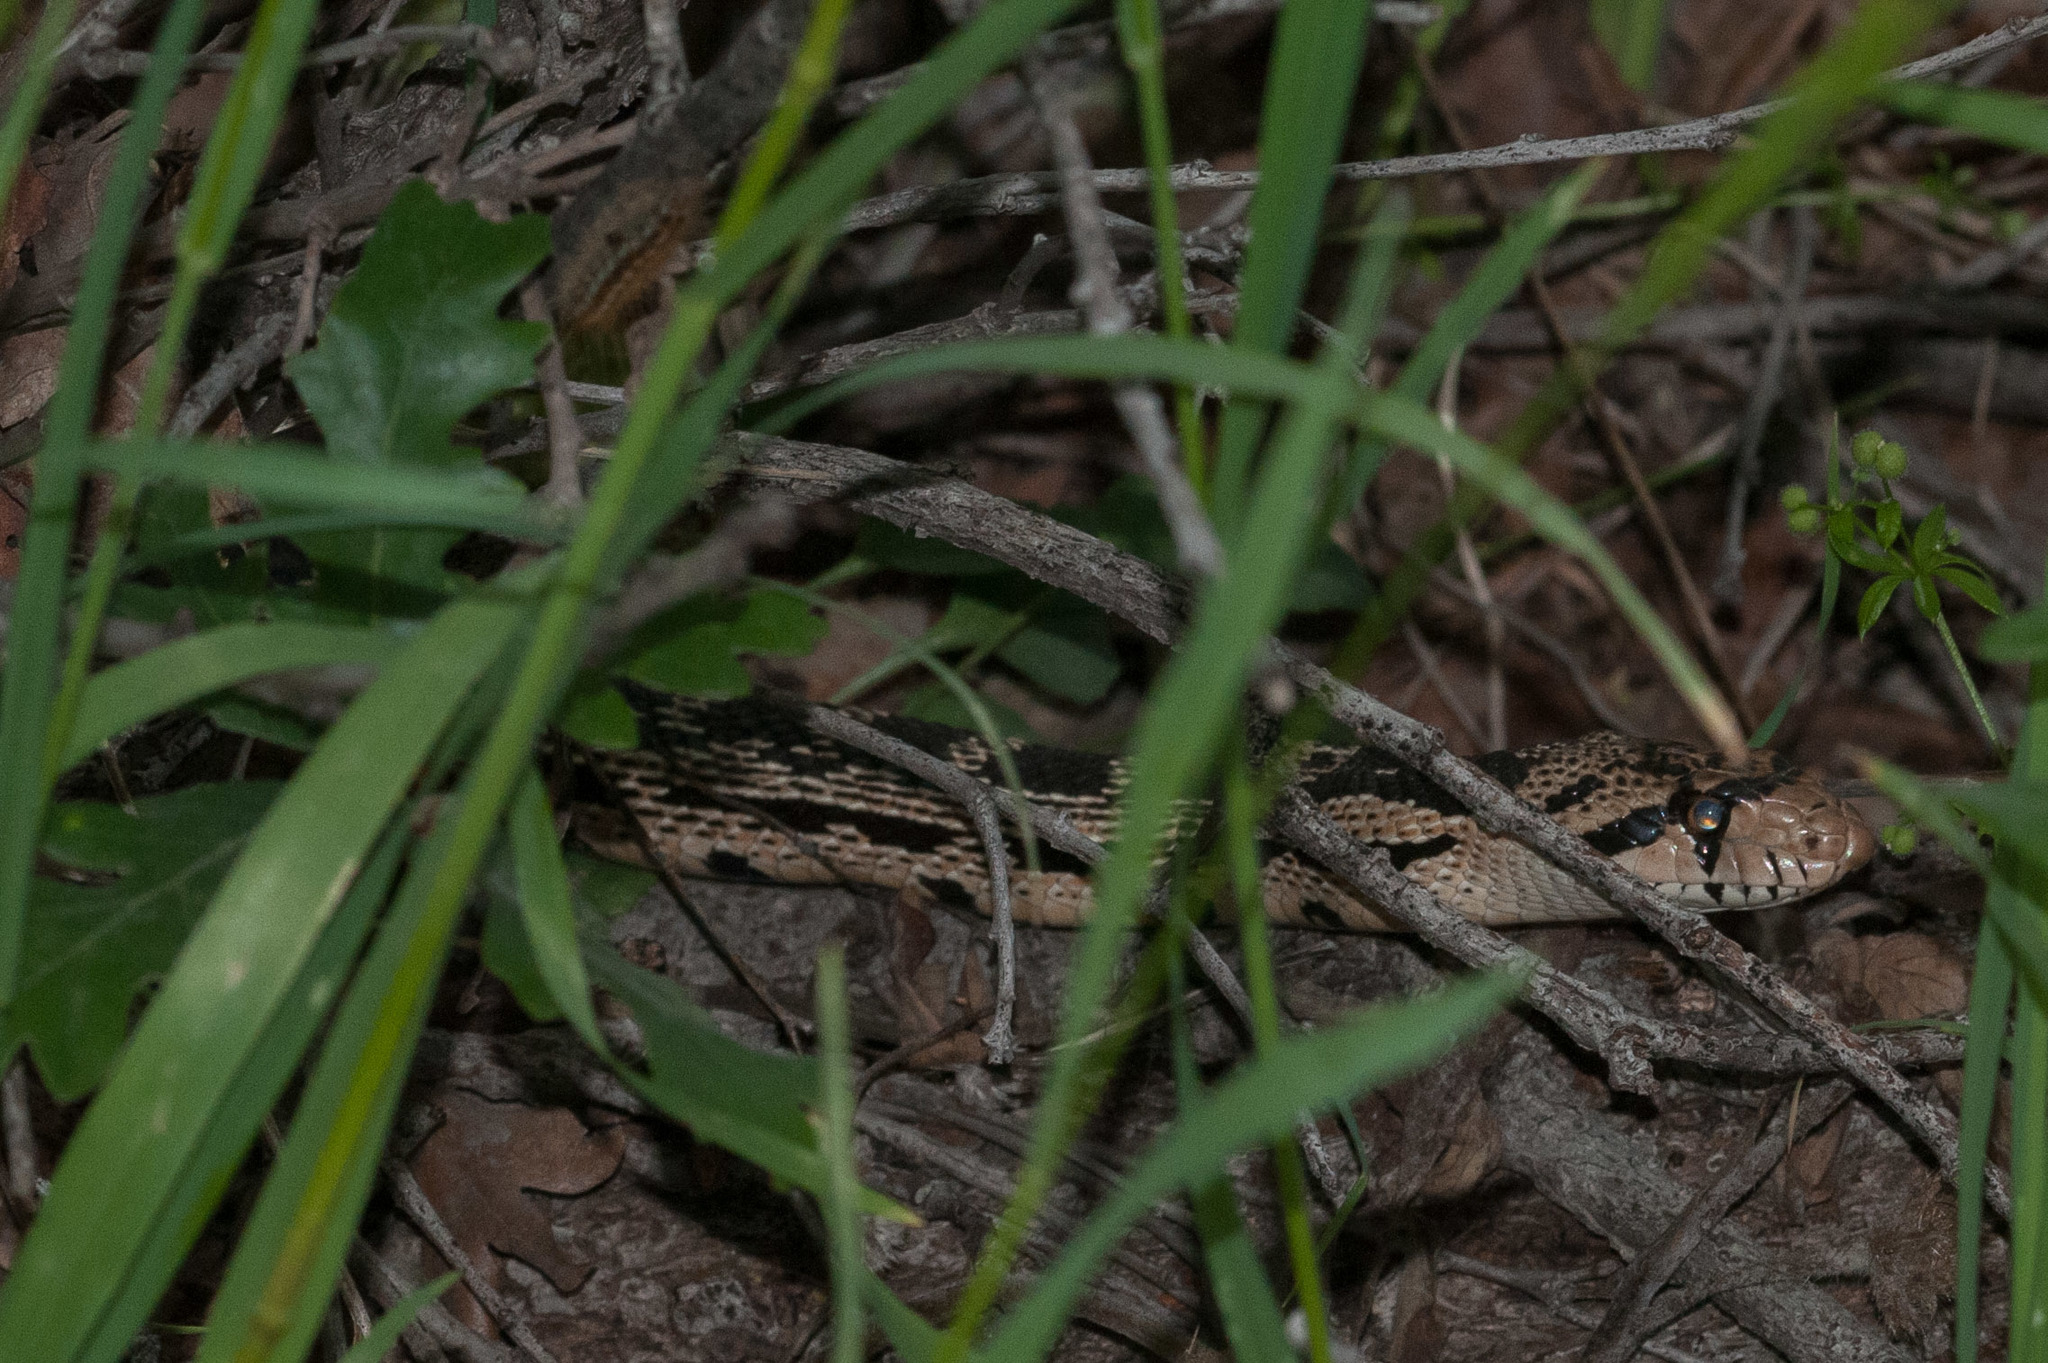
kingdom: Animalia
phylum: Chordata
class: Squamata
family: Colubridae
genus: Pituophis
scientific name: Pituophis catenifer
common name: Gopher snake
